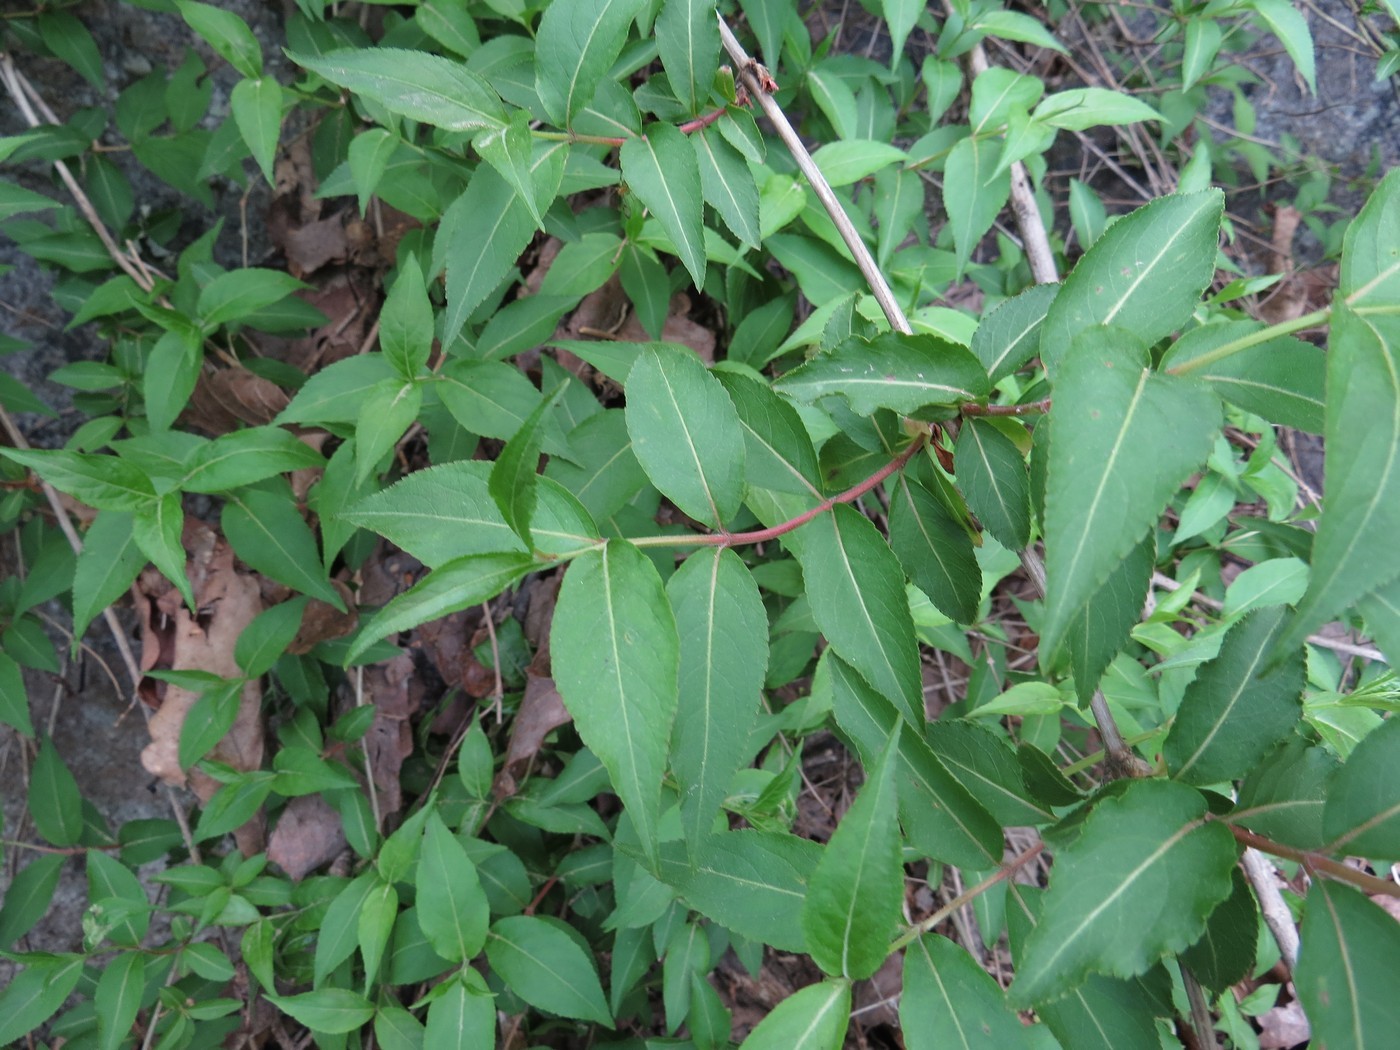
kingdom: Plantae
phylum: Tracheophyta
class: Magnoliopsida
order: Dipsacales
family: Caprifoliaceae
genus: Diervilla
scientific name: Diervilla rivularis
